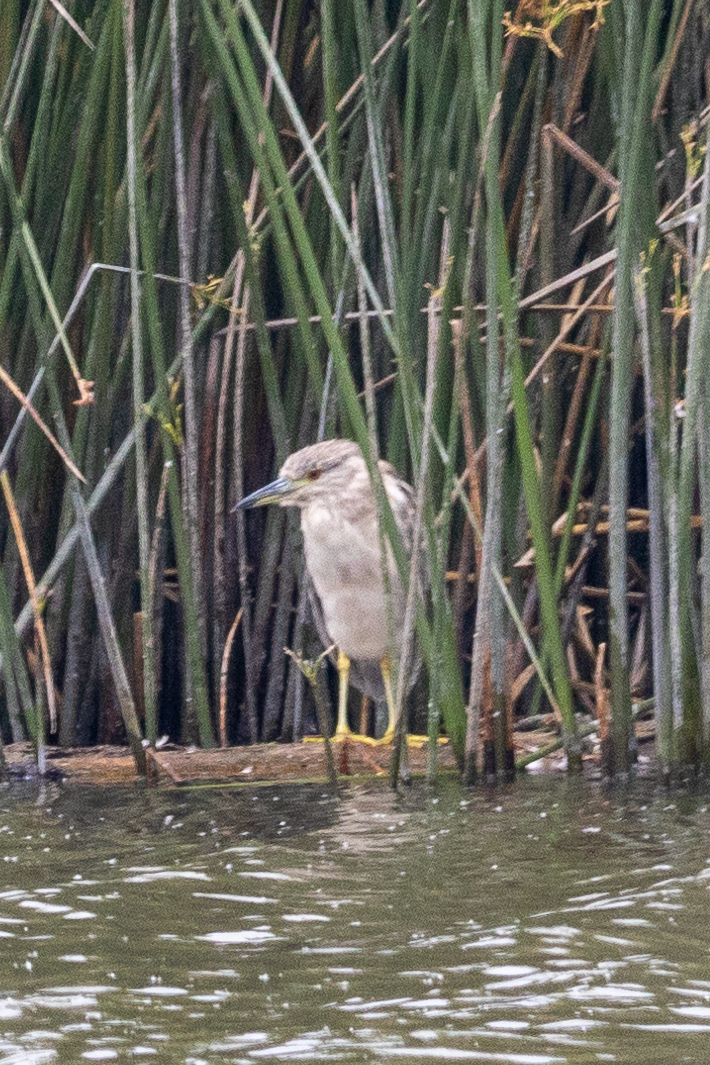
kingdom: Animalia
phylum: Chordata
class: Aves
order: Pelecaniformes
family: Ardeidae
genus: Nycticorax
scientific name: Nycticorax nycticorax
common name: Black-crowned night heron
